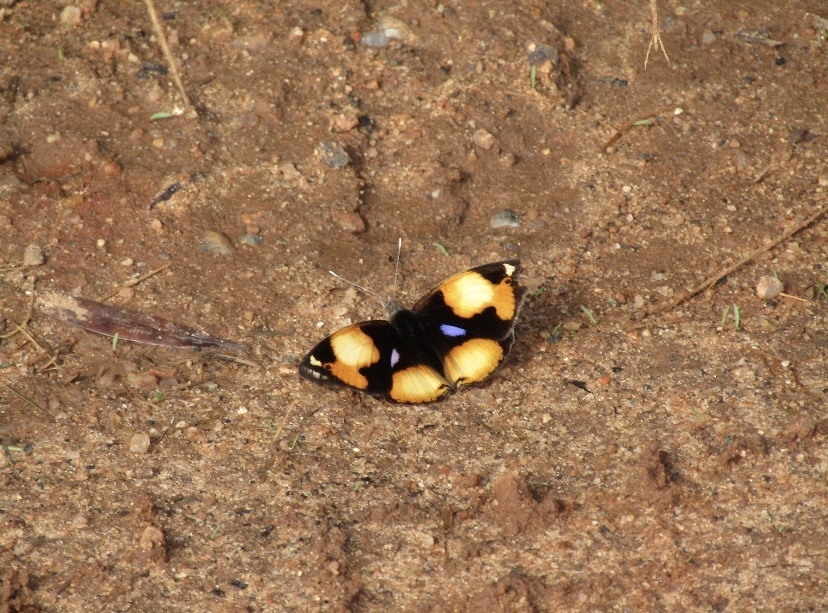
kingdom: Animalia
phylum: Arthropoda
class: Insecta
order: Lepidoptera
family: Nymphalidae
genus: Junonia
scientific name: Junonia hierta
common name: Yellow pansy
